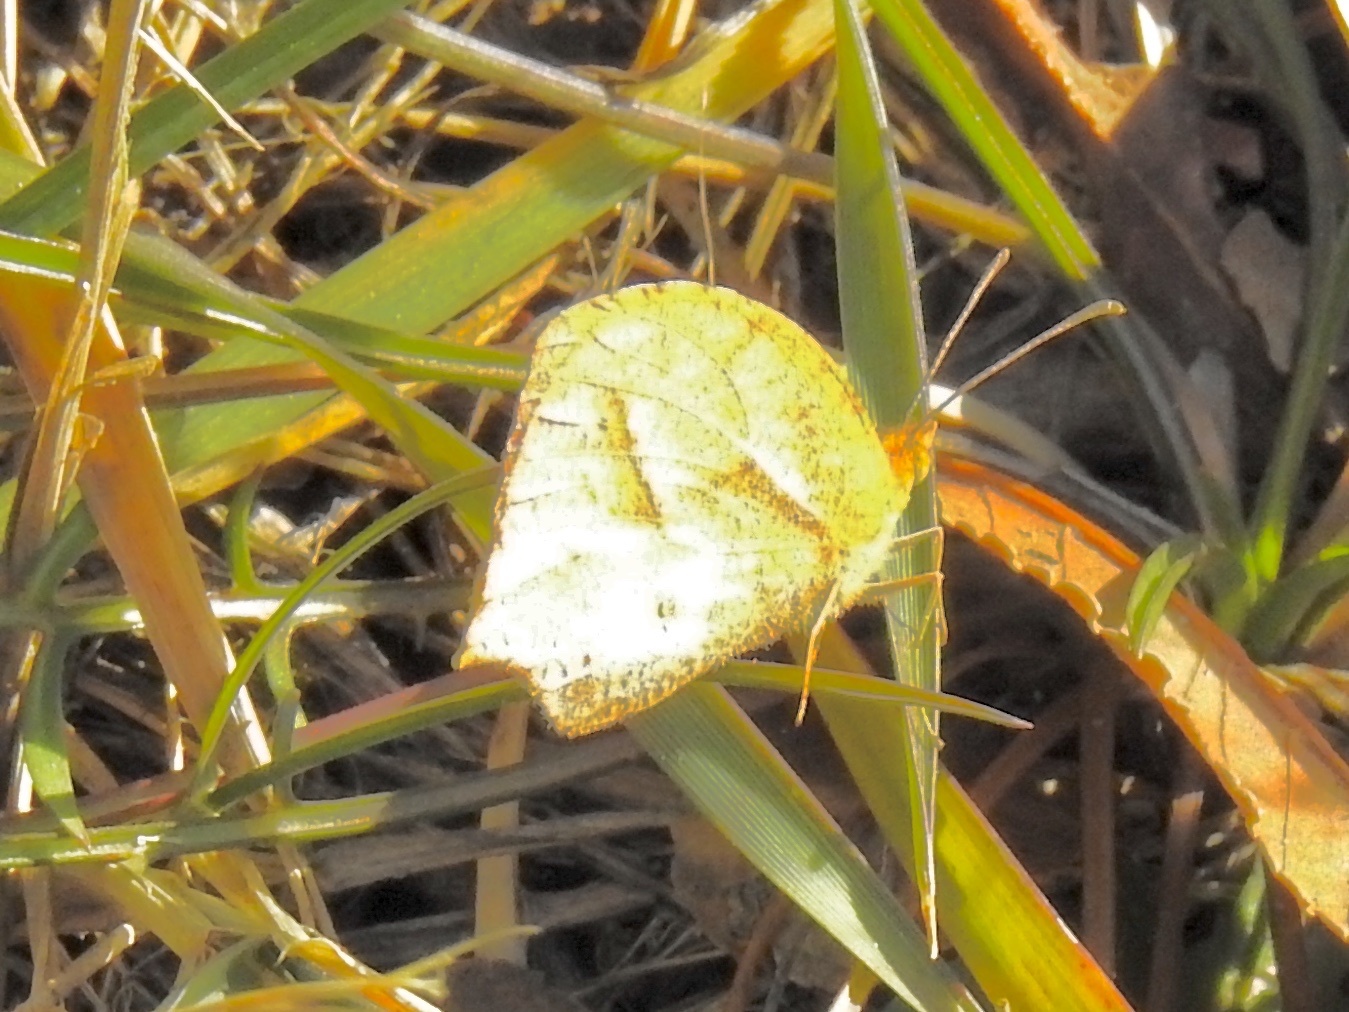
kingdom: Animalia
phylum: Arthropoda
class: Insecta
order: Lepidoptera
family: Pieridae
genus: Abaeis
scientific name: Abaeis mexicana
